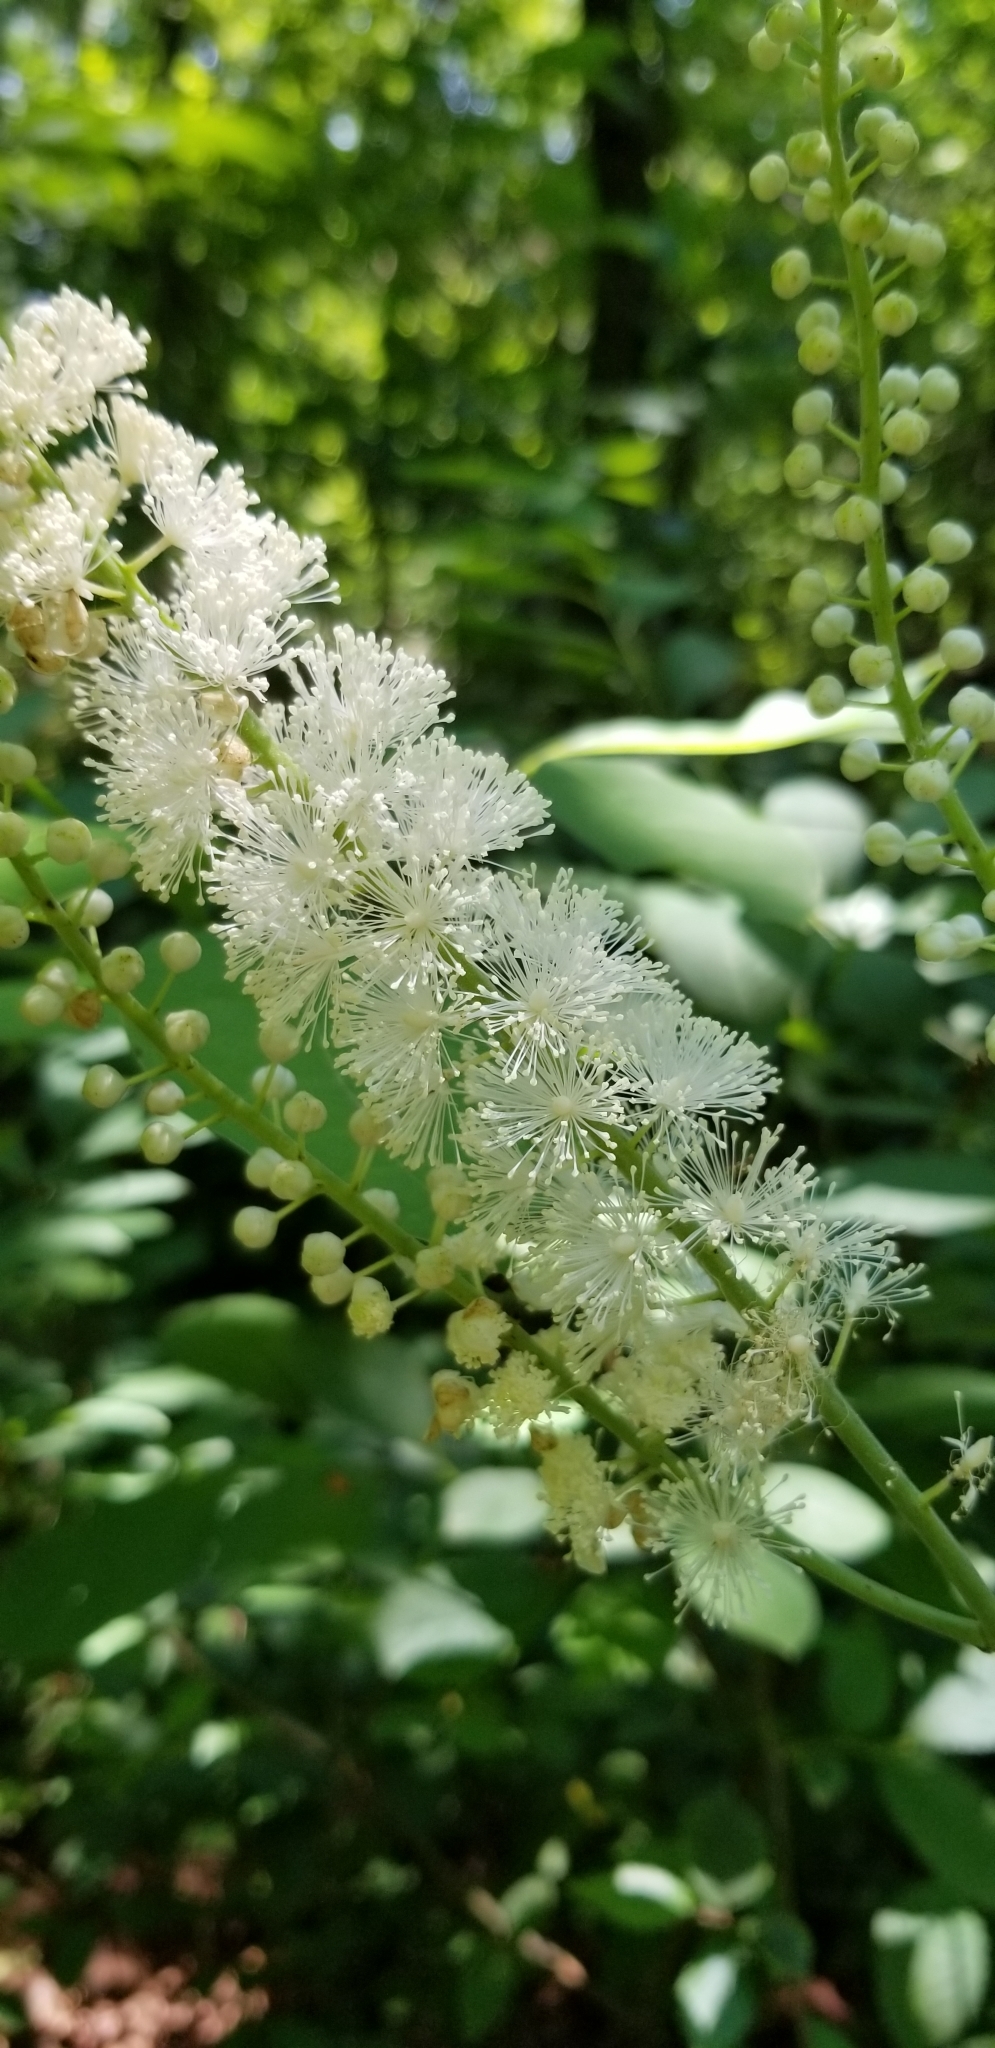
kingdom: Plantae
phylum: Tracheophyta
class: Magnoliopsida
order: Ranunculales
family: Ranunculaceae
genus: Actaea
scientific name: Actaea racemosa
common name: Black cohosh
